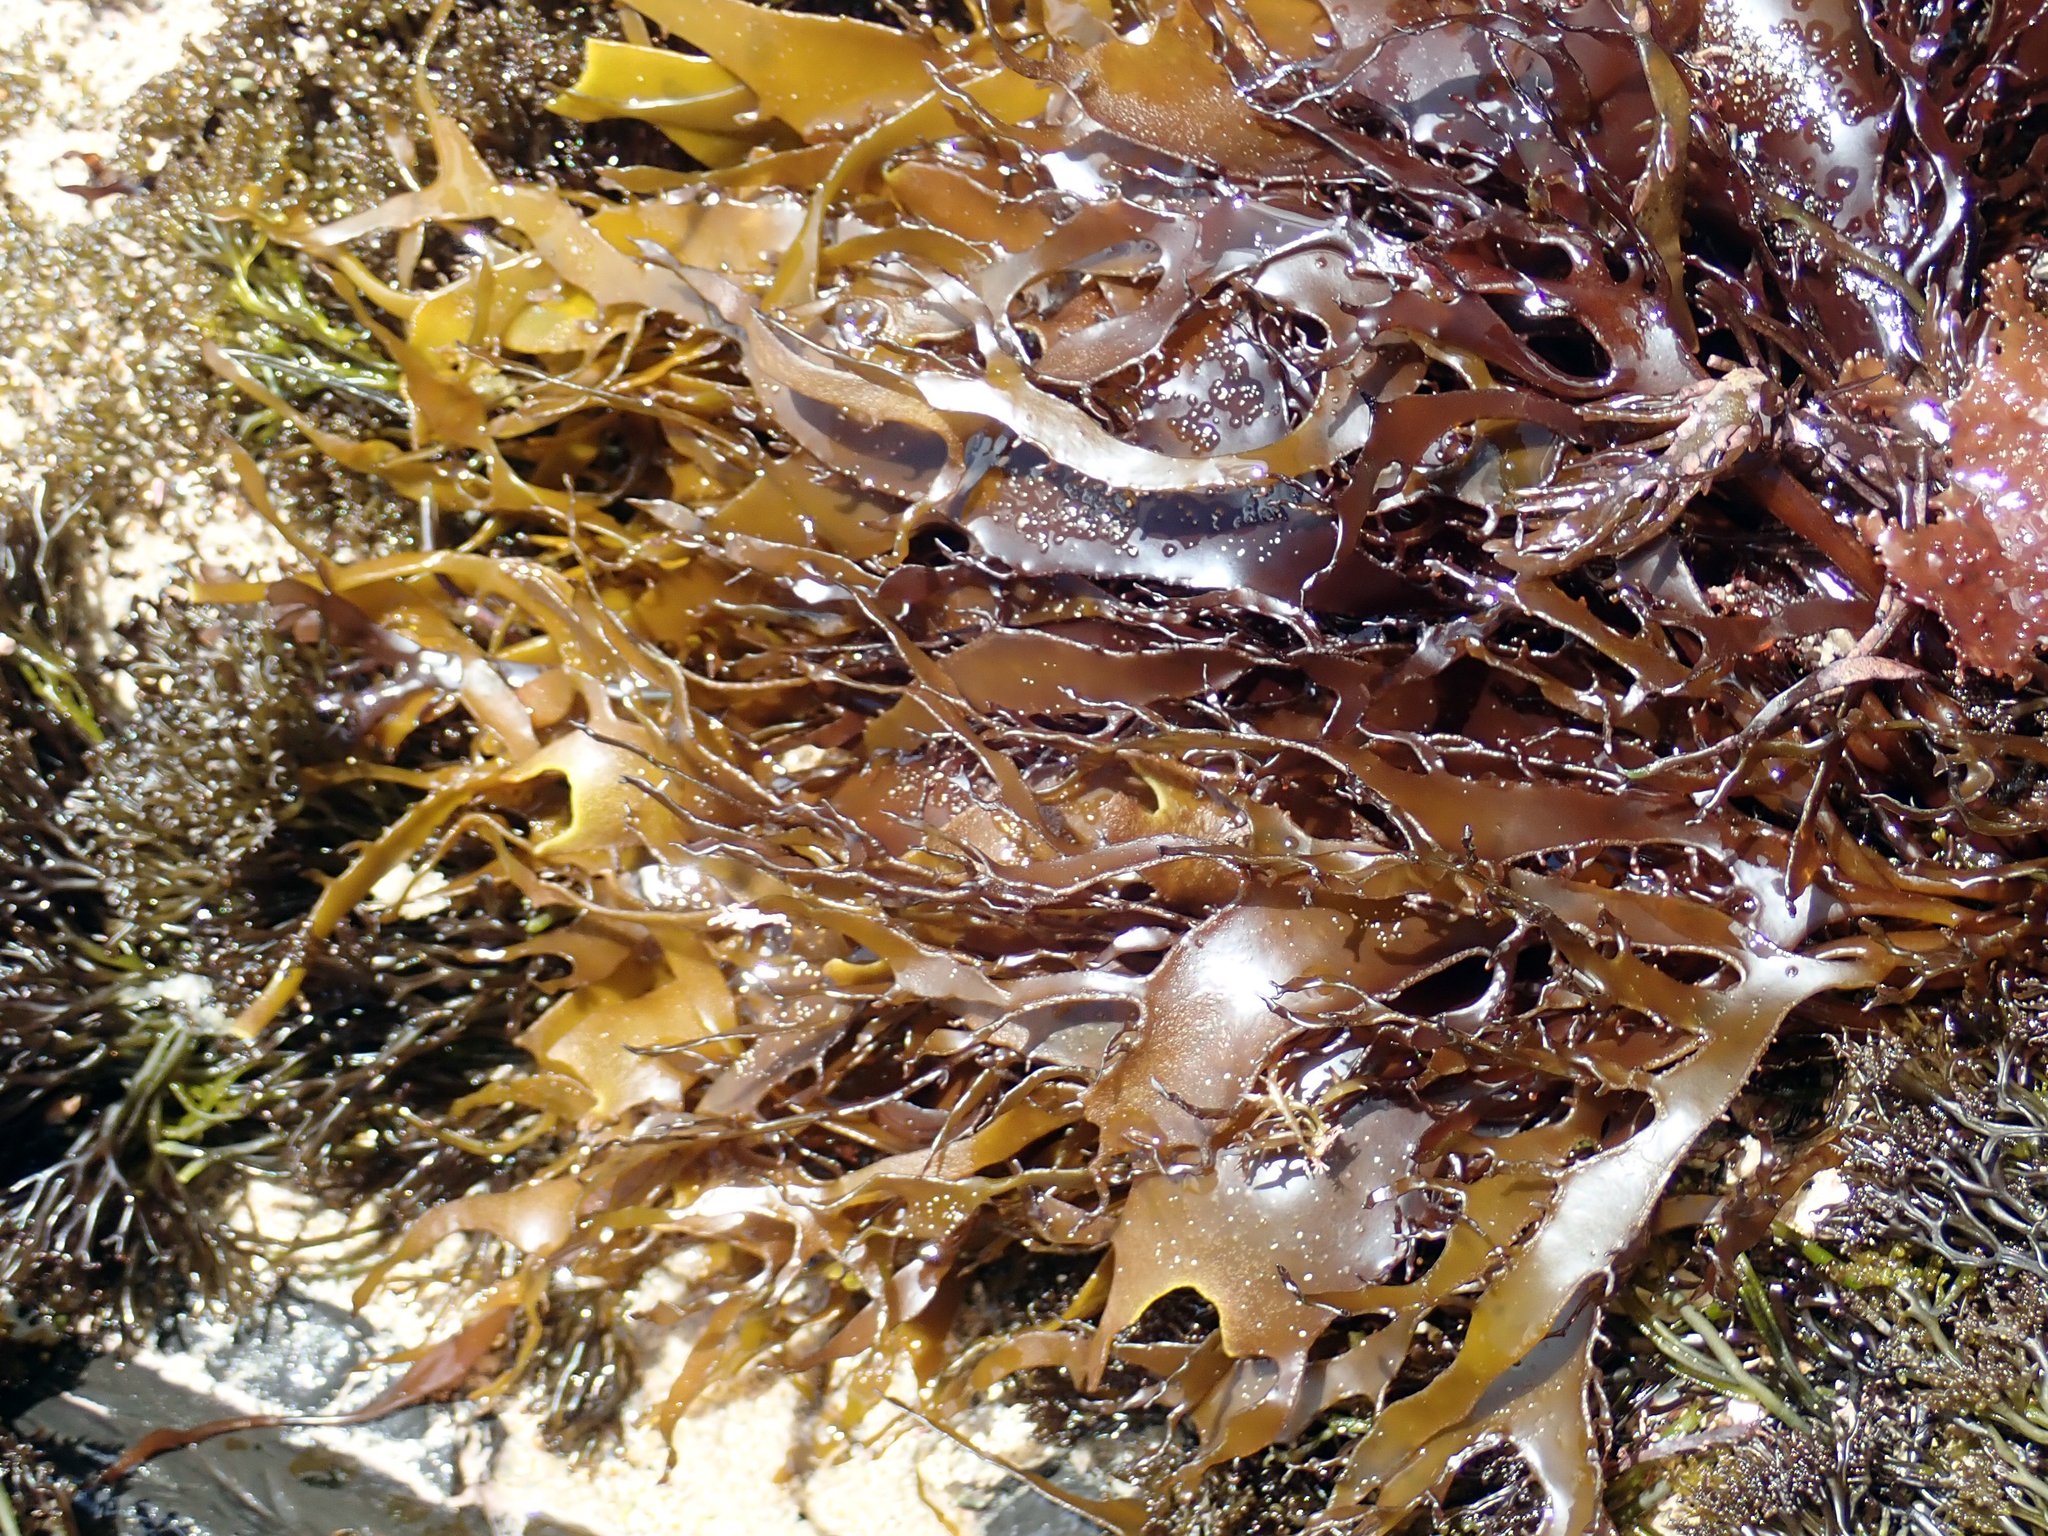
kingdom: Plantae
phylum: Rhodophyta
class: Florideophyceae
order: Halymeniales
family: Halymeniaceae
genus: Pachymenia
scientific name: Pachymenia lusoria
